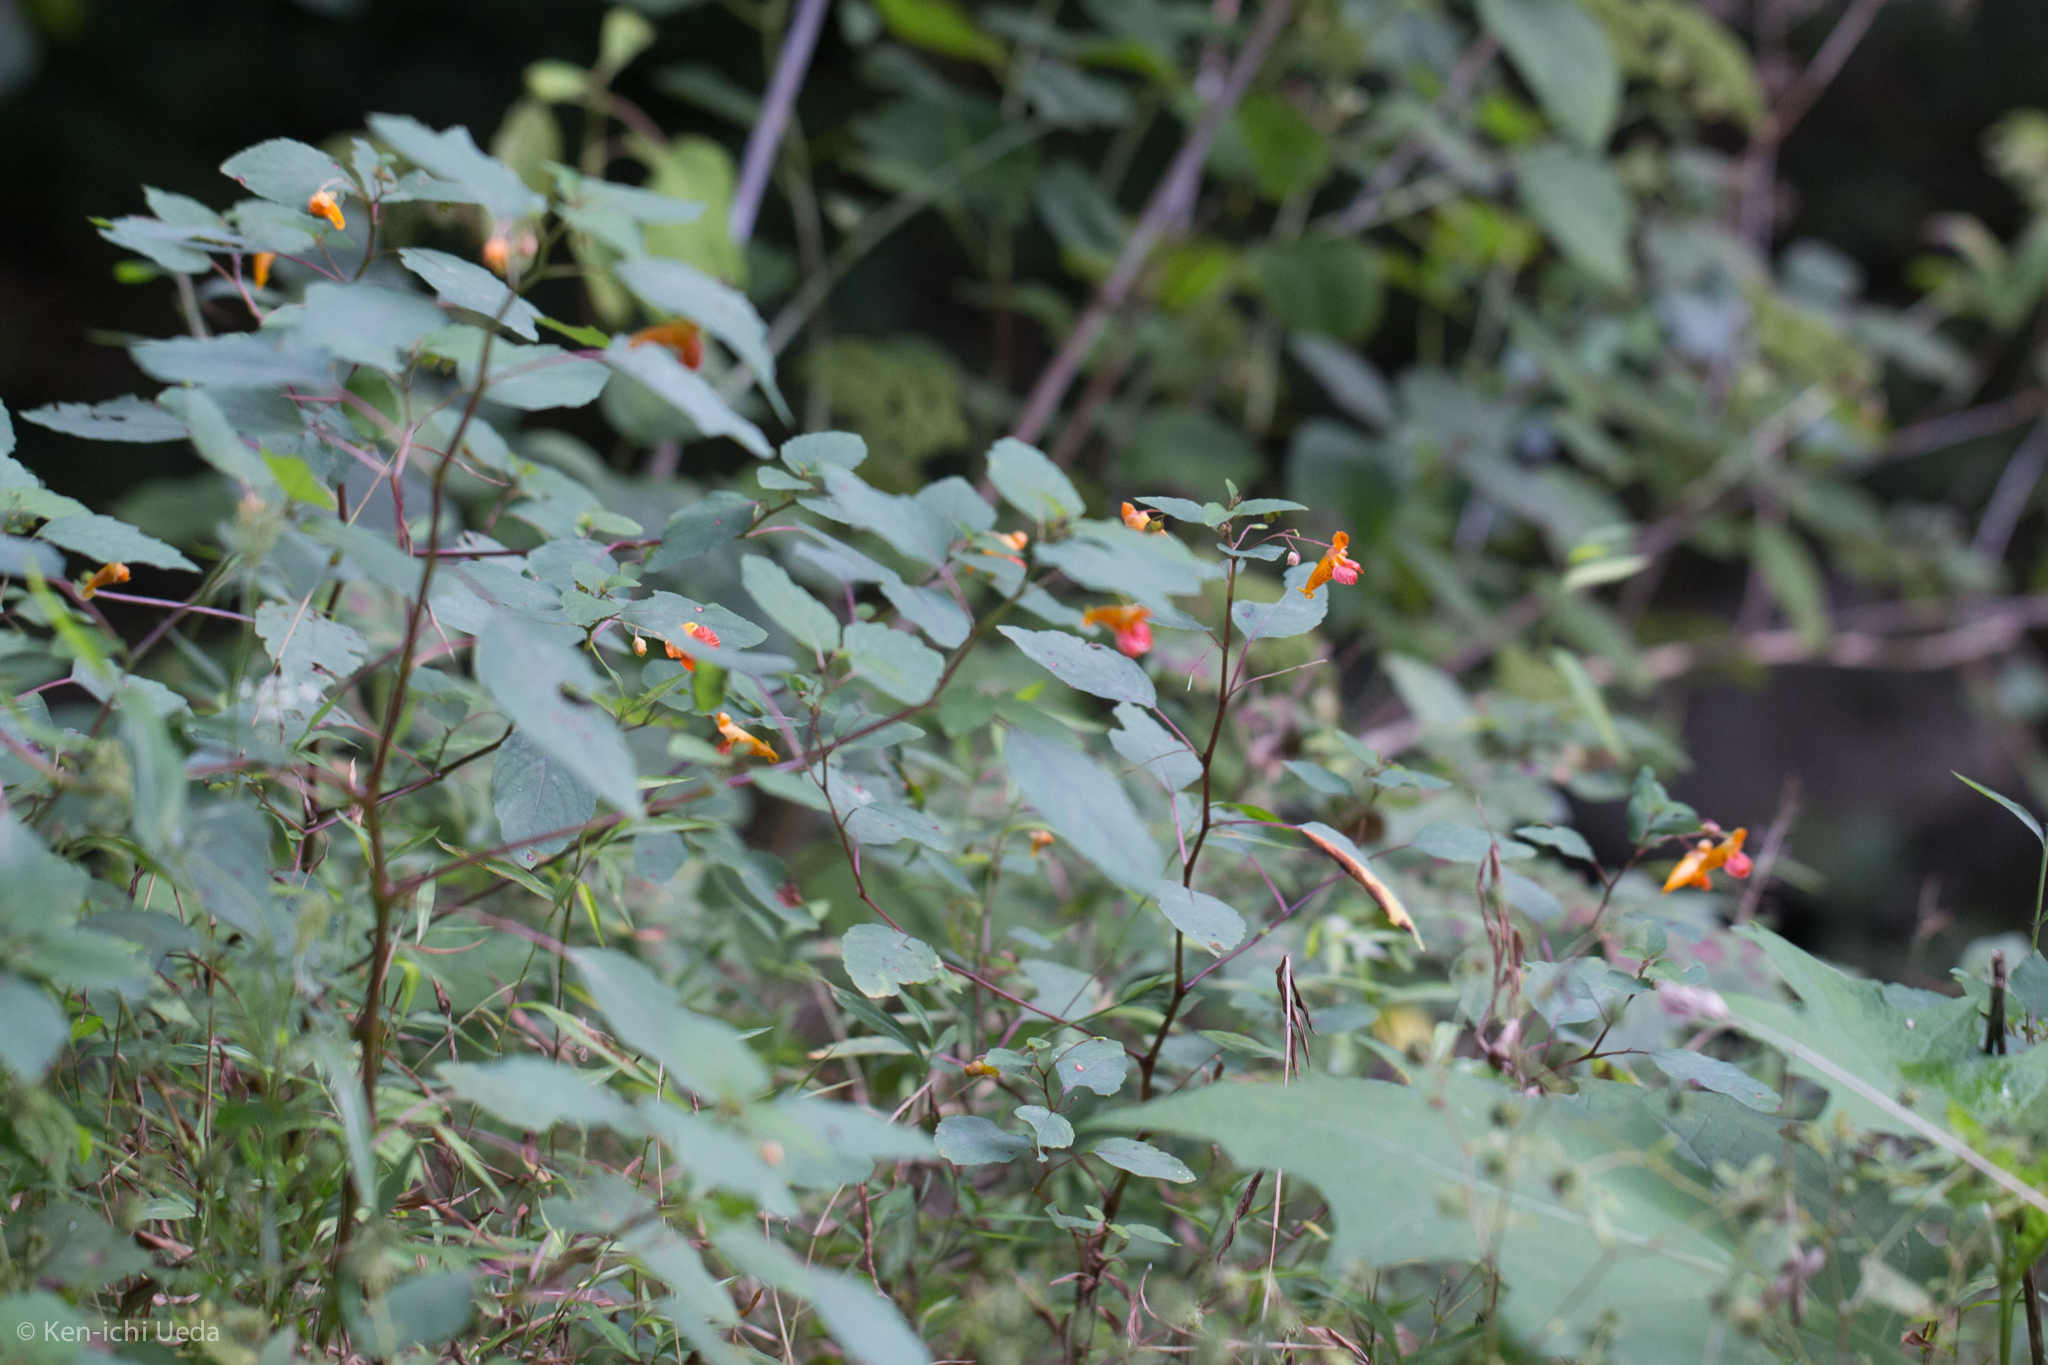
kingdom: Plantae
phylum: Tracheophyta
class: Magnoliopsida
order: Ericales
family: Balsaminaceae
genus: Impatiens
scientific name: Impatiens capensis
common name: Orange balsam
